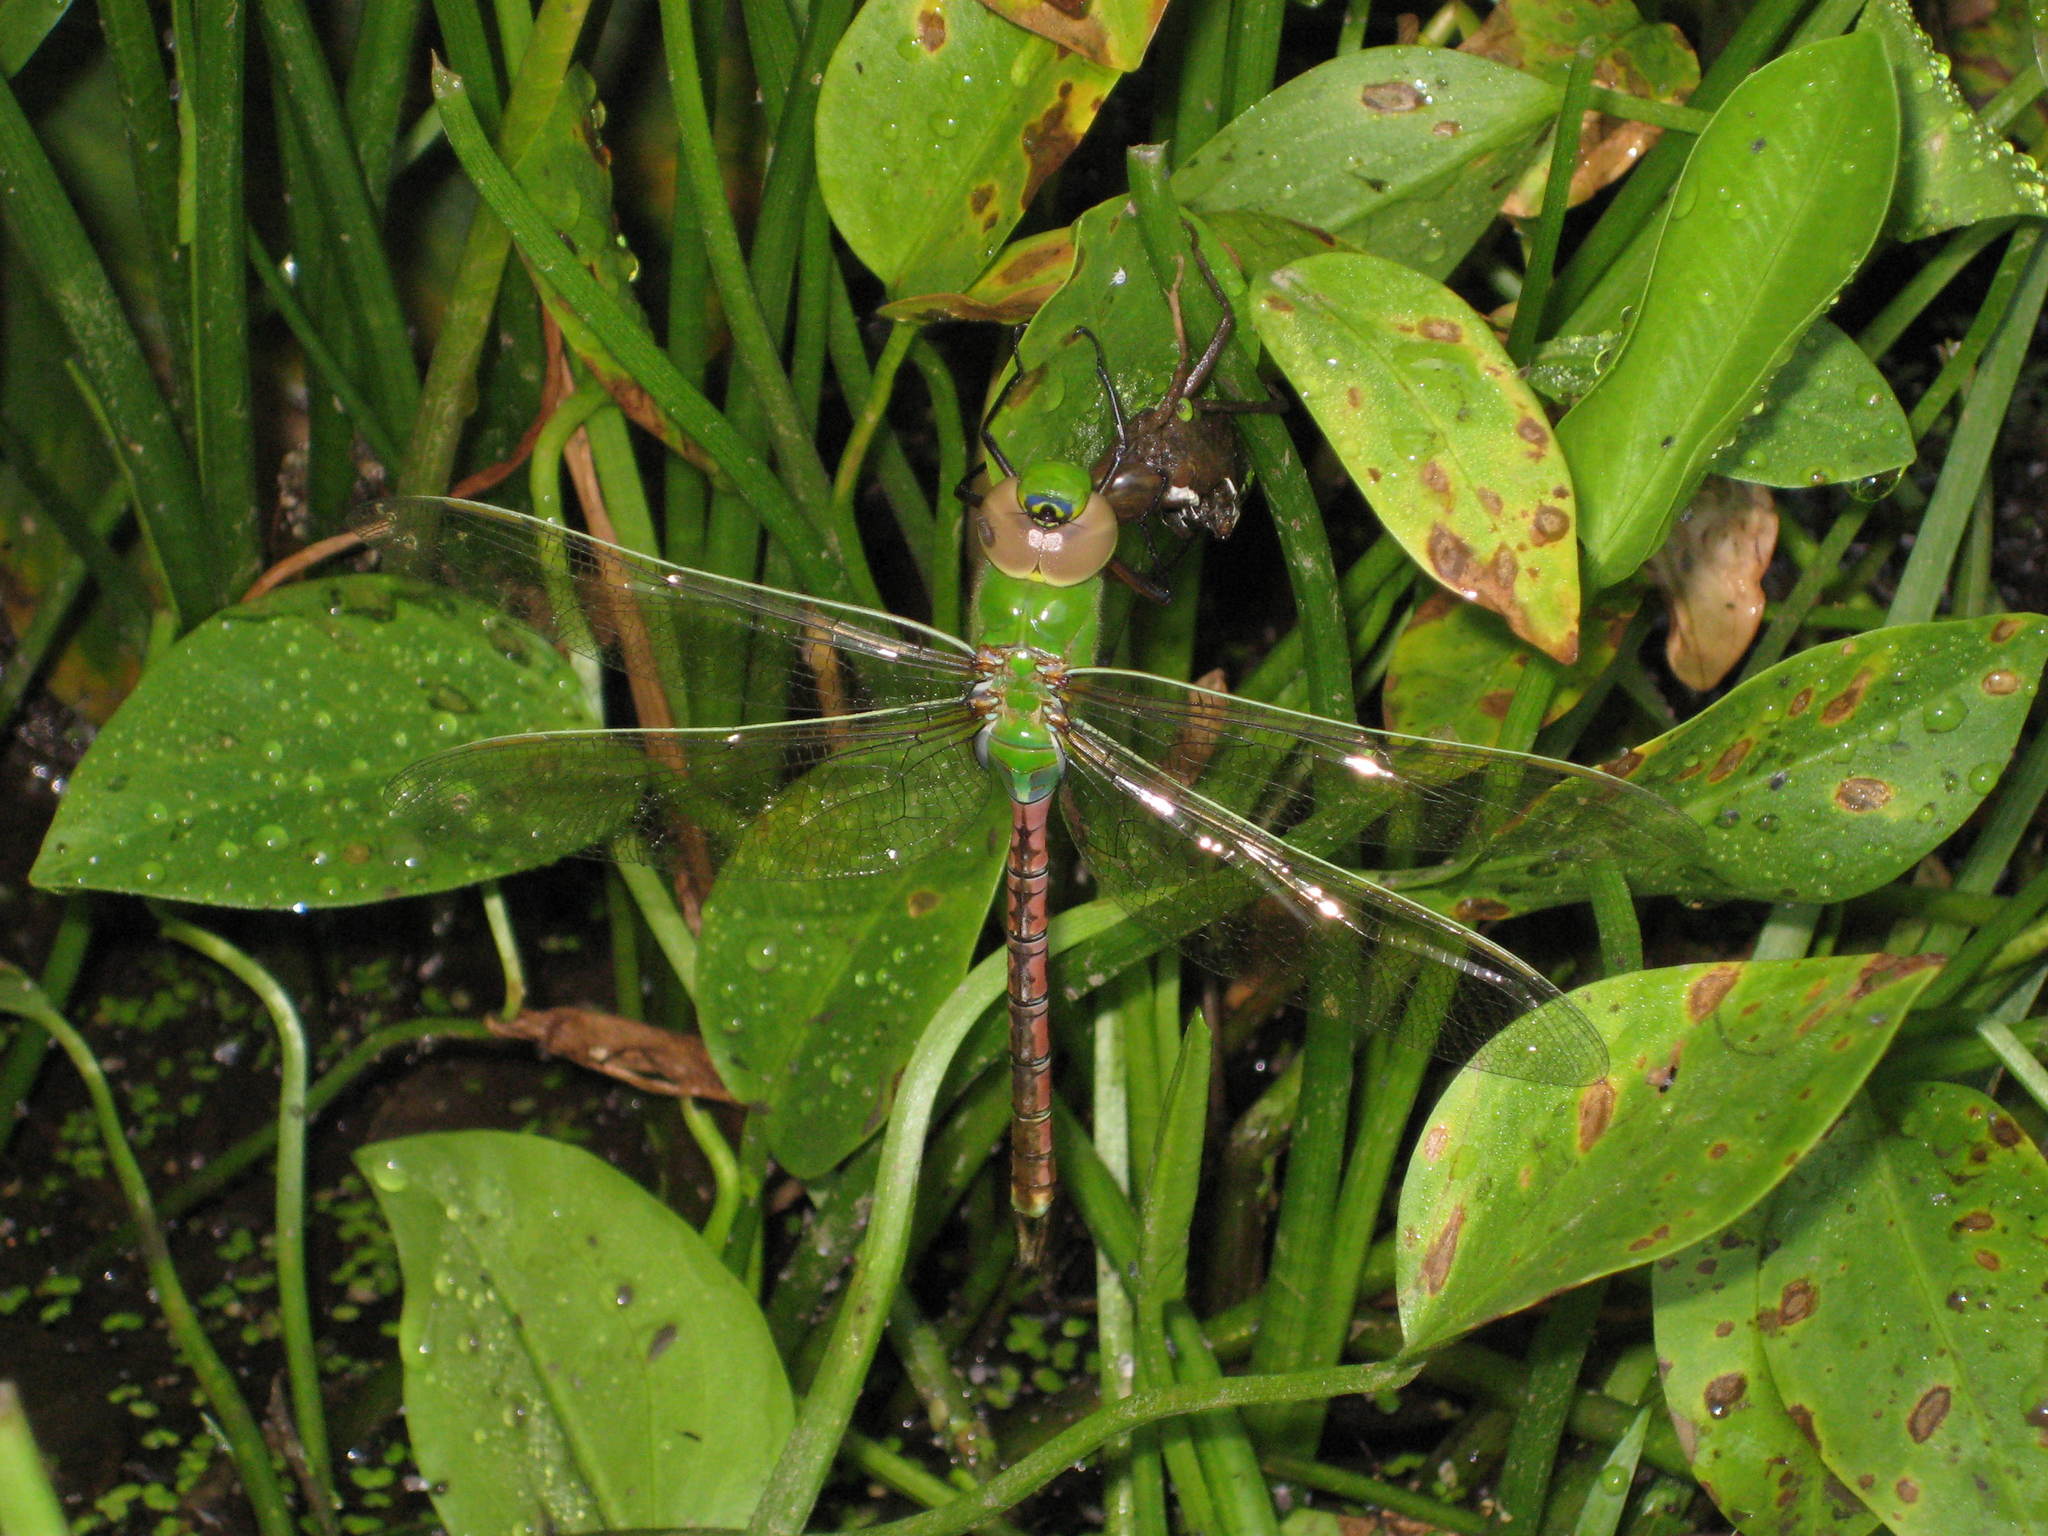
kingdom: Animalia
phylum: Arthropoda
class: Insecta
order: Odonata
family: Aeshnidae
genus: Anax
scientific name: Anax junius
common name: Common green darner
